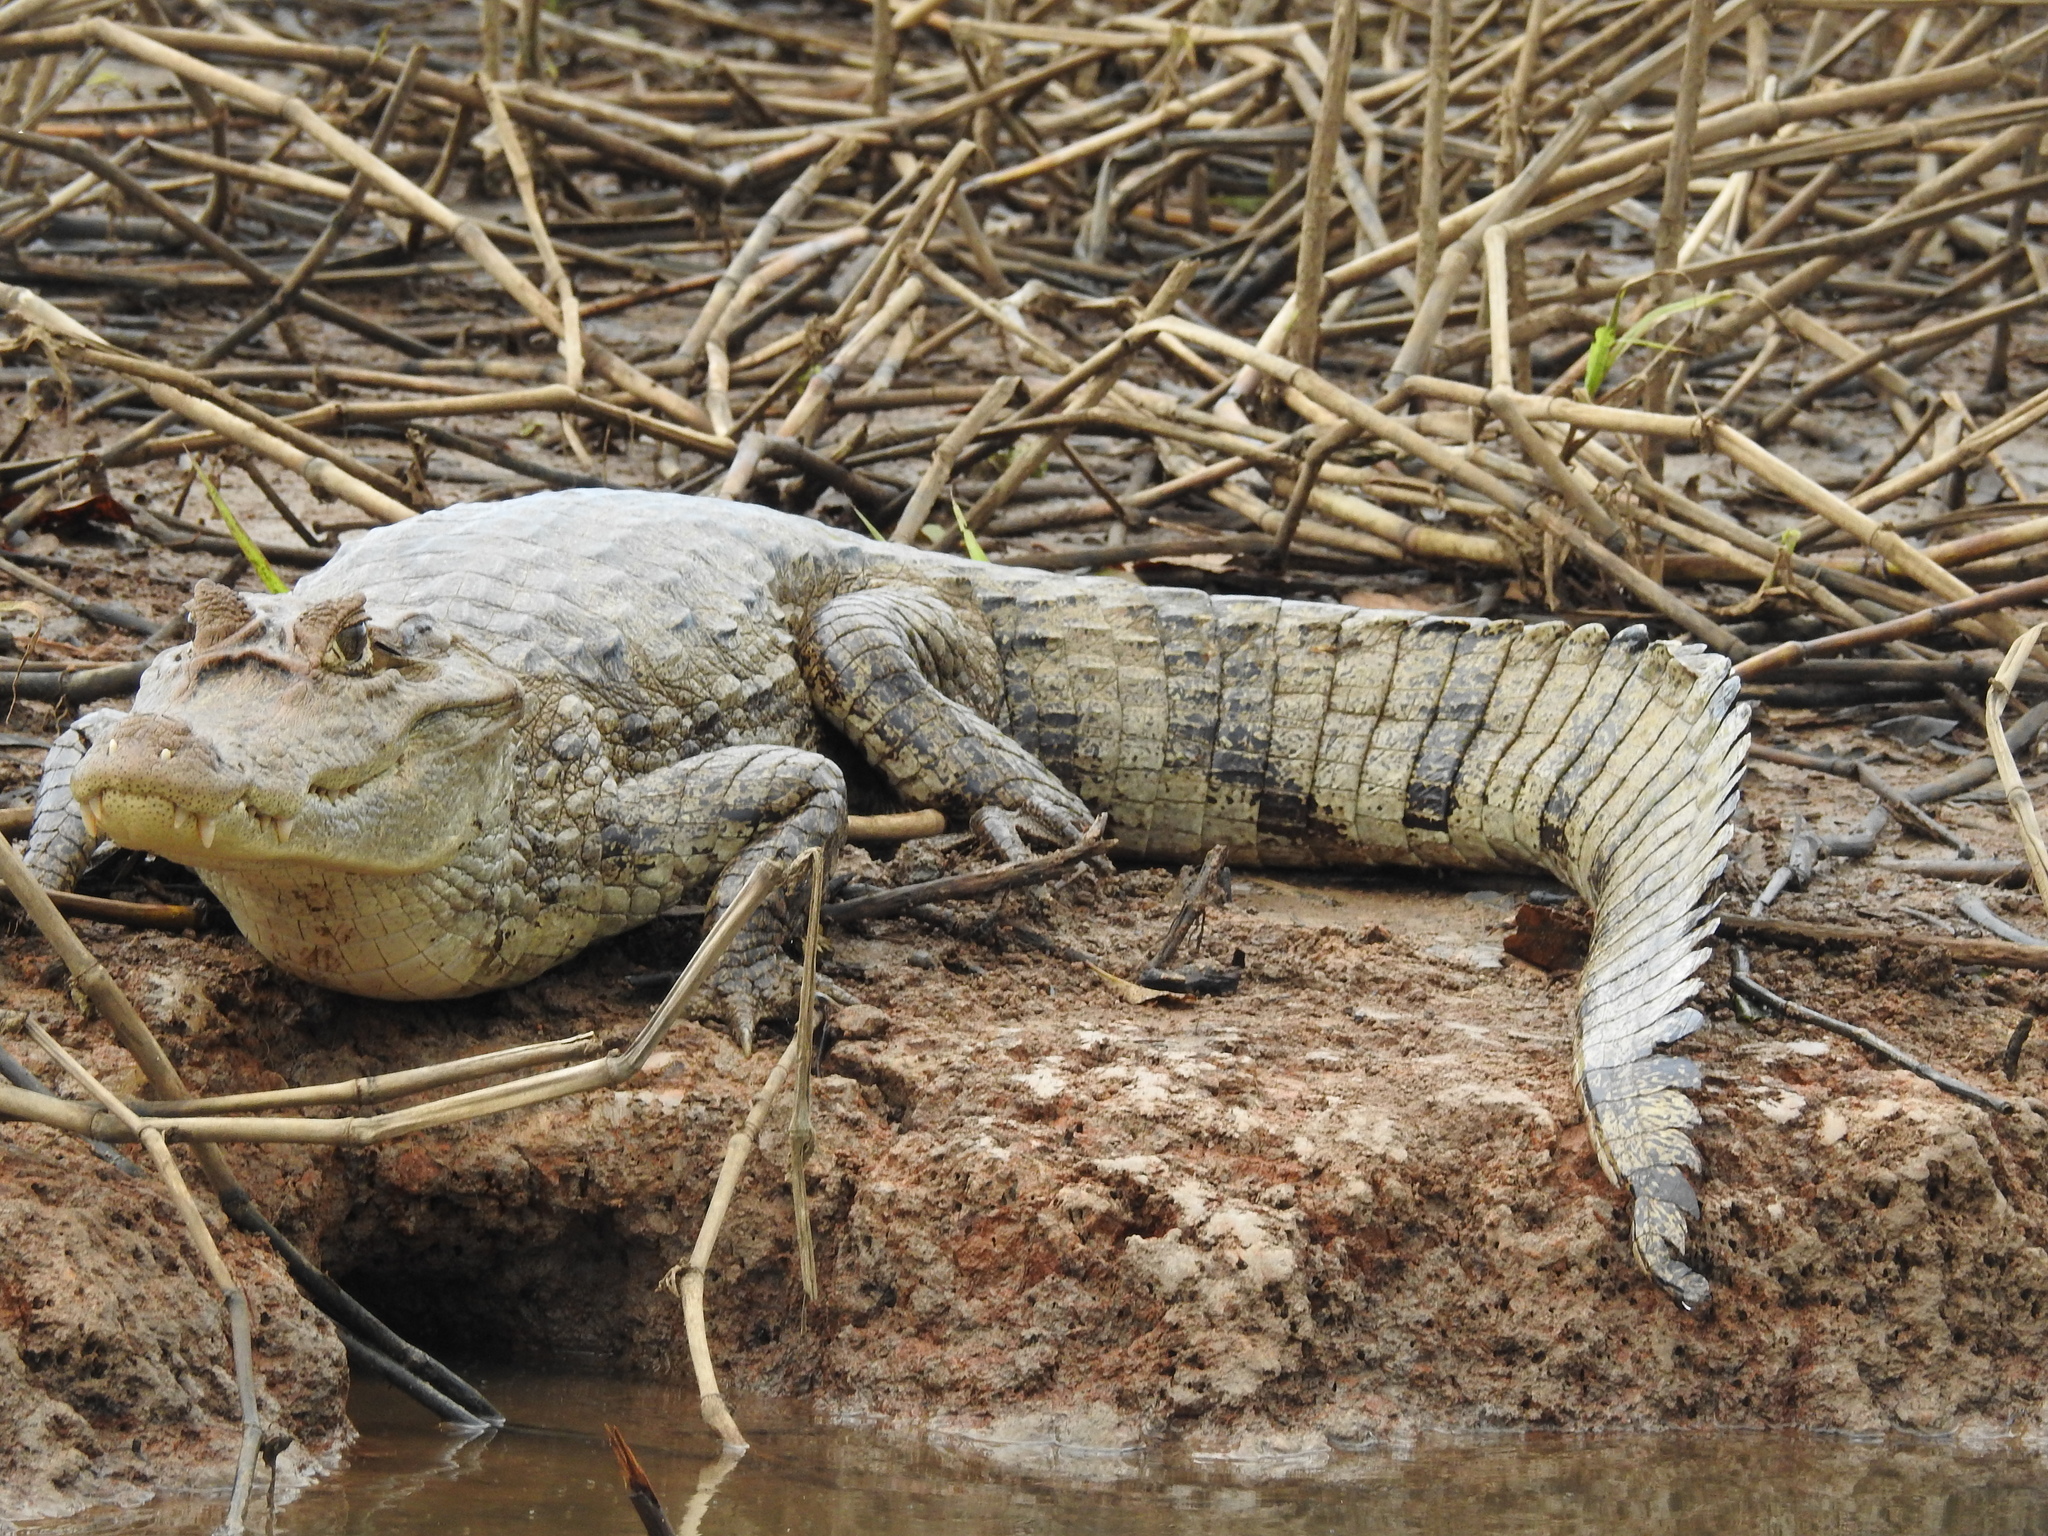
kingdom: Animalia
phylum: Chordata
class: Crocodylia
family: Alligatoridae
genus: Caiman
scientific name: Caiman crocodilus
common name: Common caiman
